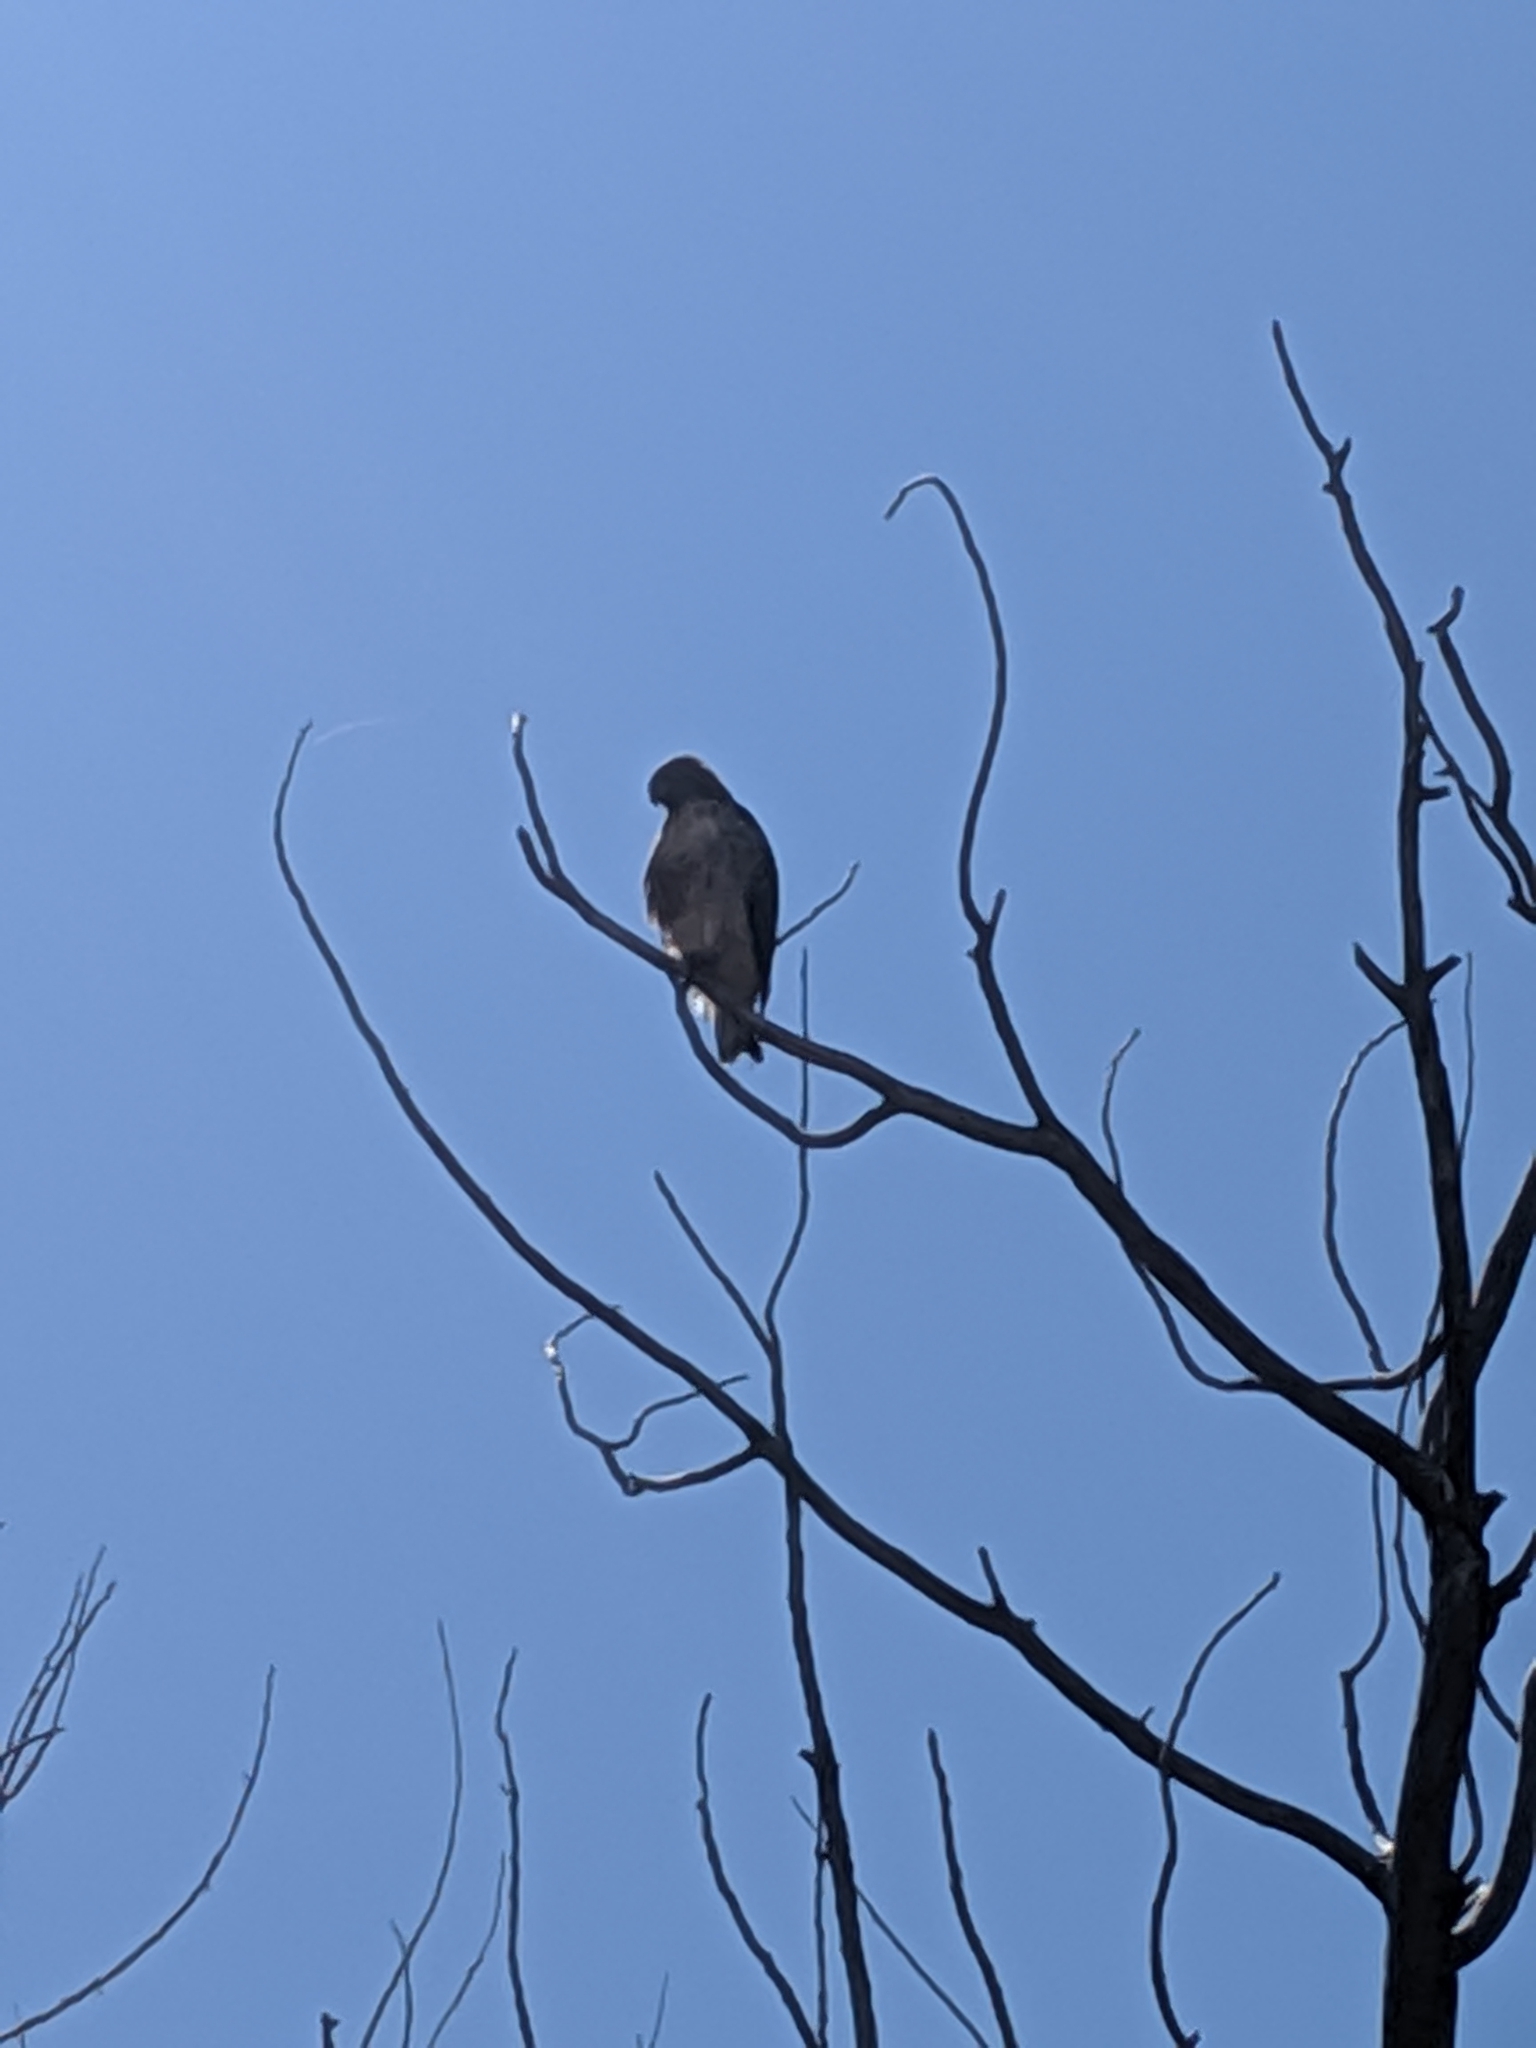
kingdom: Animalia
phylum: Chordata
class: Aves
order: Accipitriformes
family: Accipitridae
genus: Buteo
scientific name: Buteo jamaicensis
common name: Red-tailed hawk
